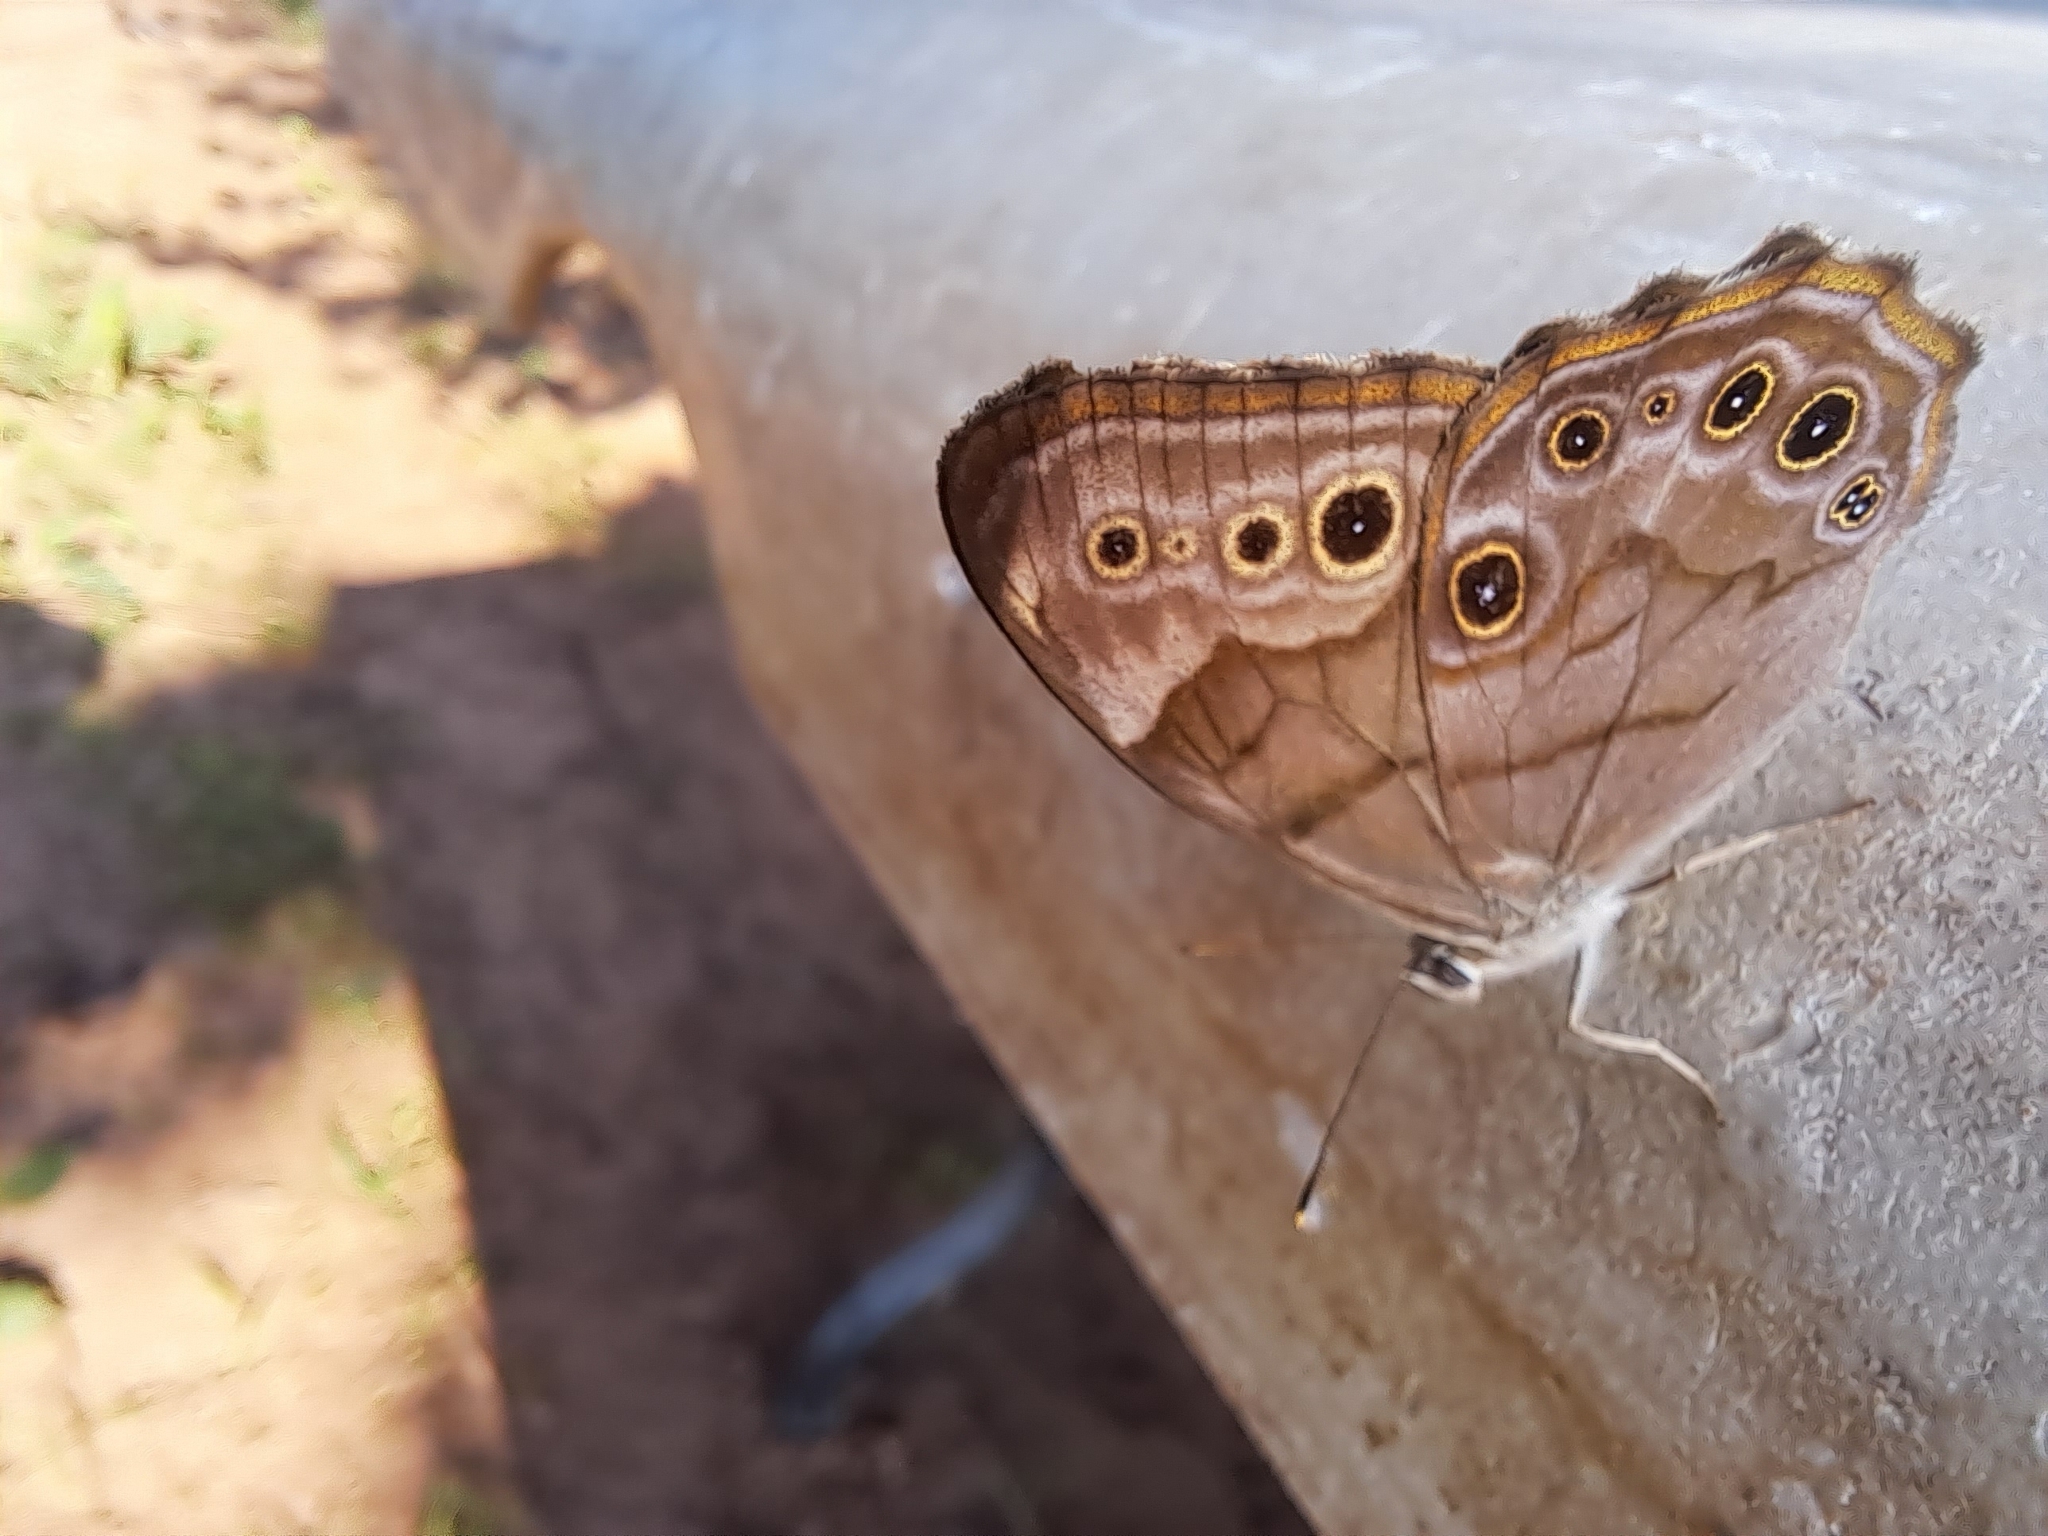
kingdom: Animalia
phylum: Arthropoda
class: Insecta
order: Lepidoptera
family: Nymphalidae
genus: Lethe
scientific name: Lethe anthedon
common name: Northern pearly-eye
